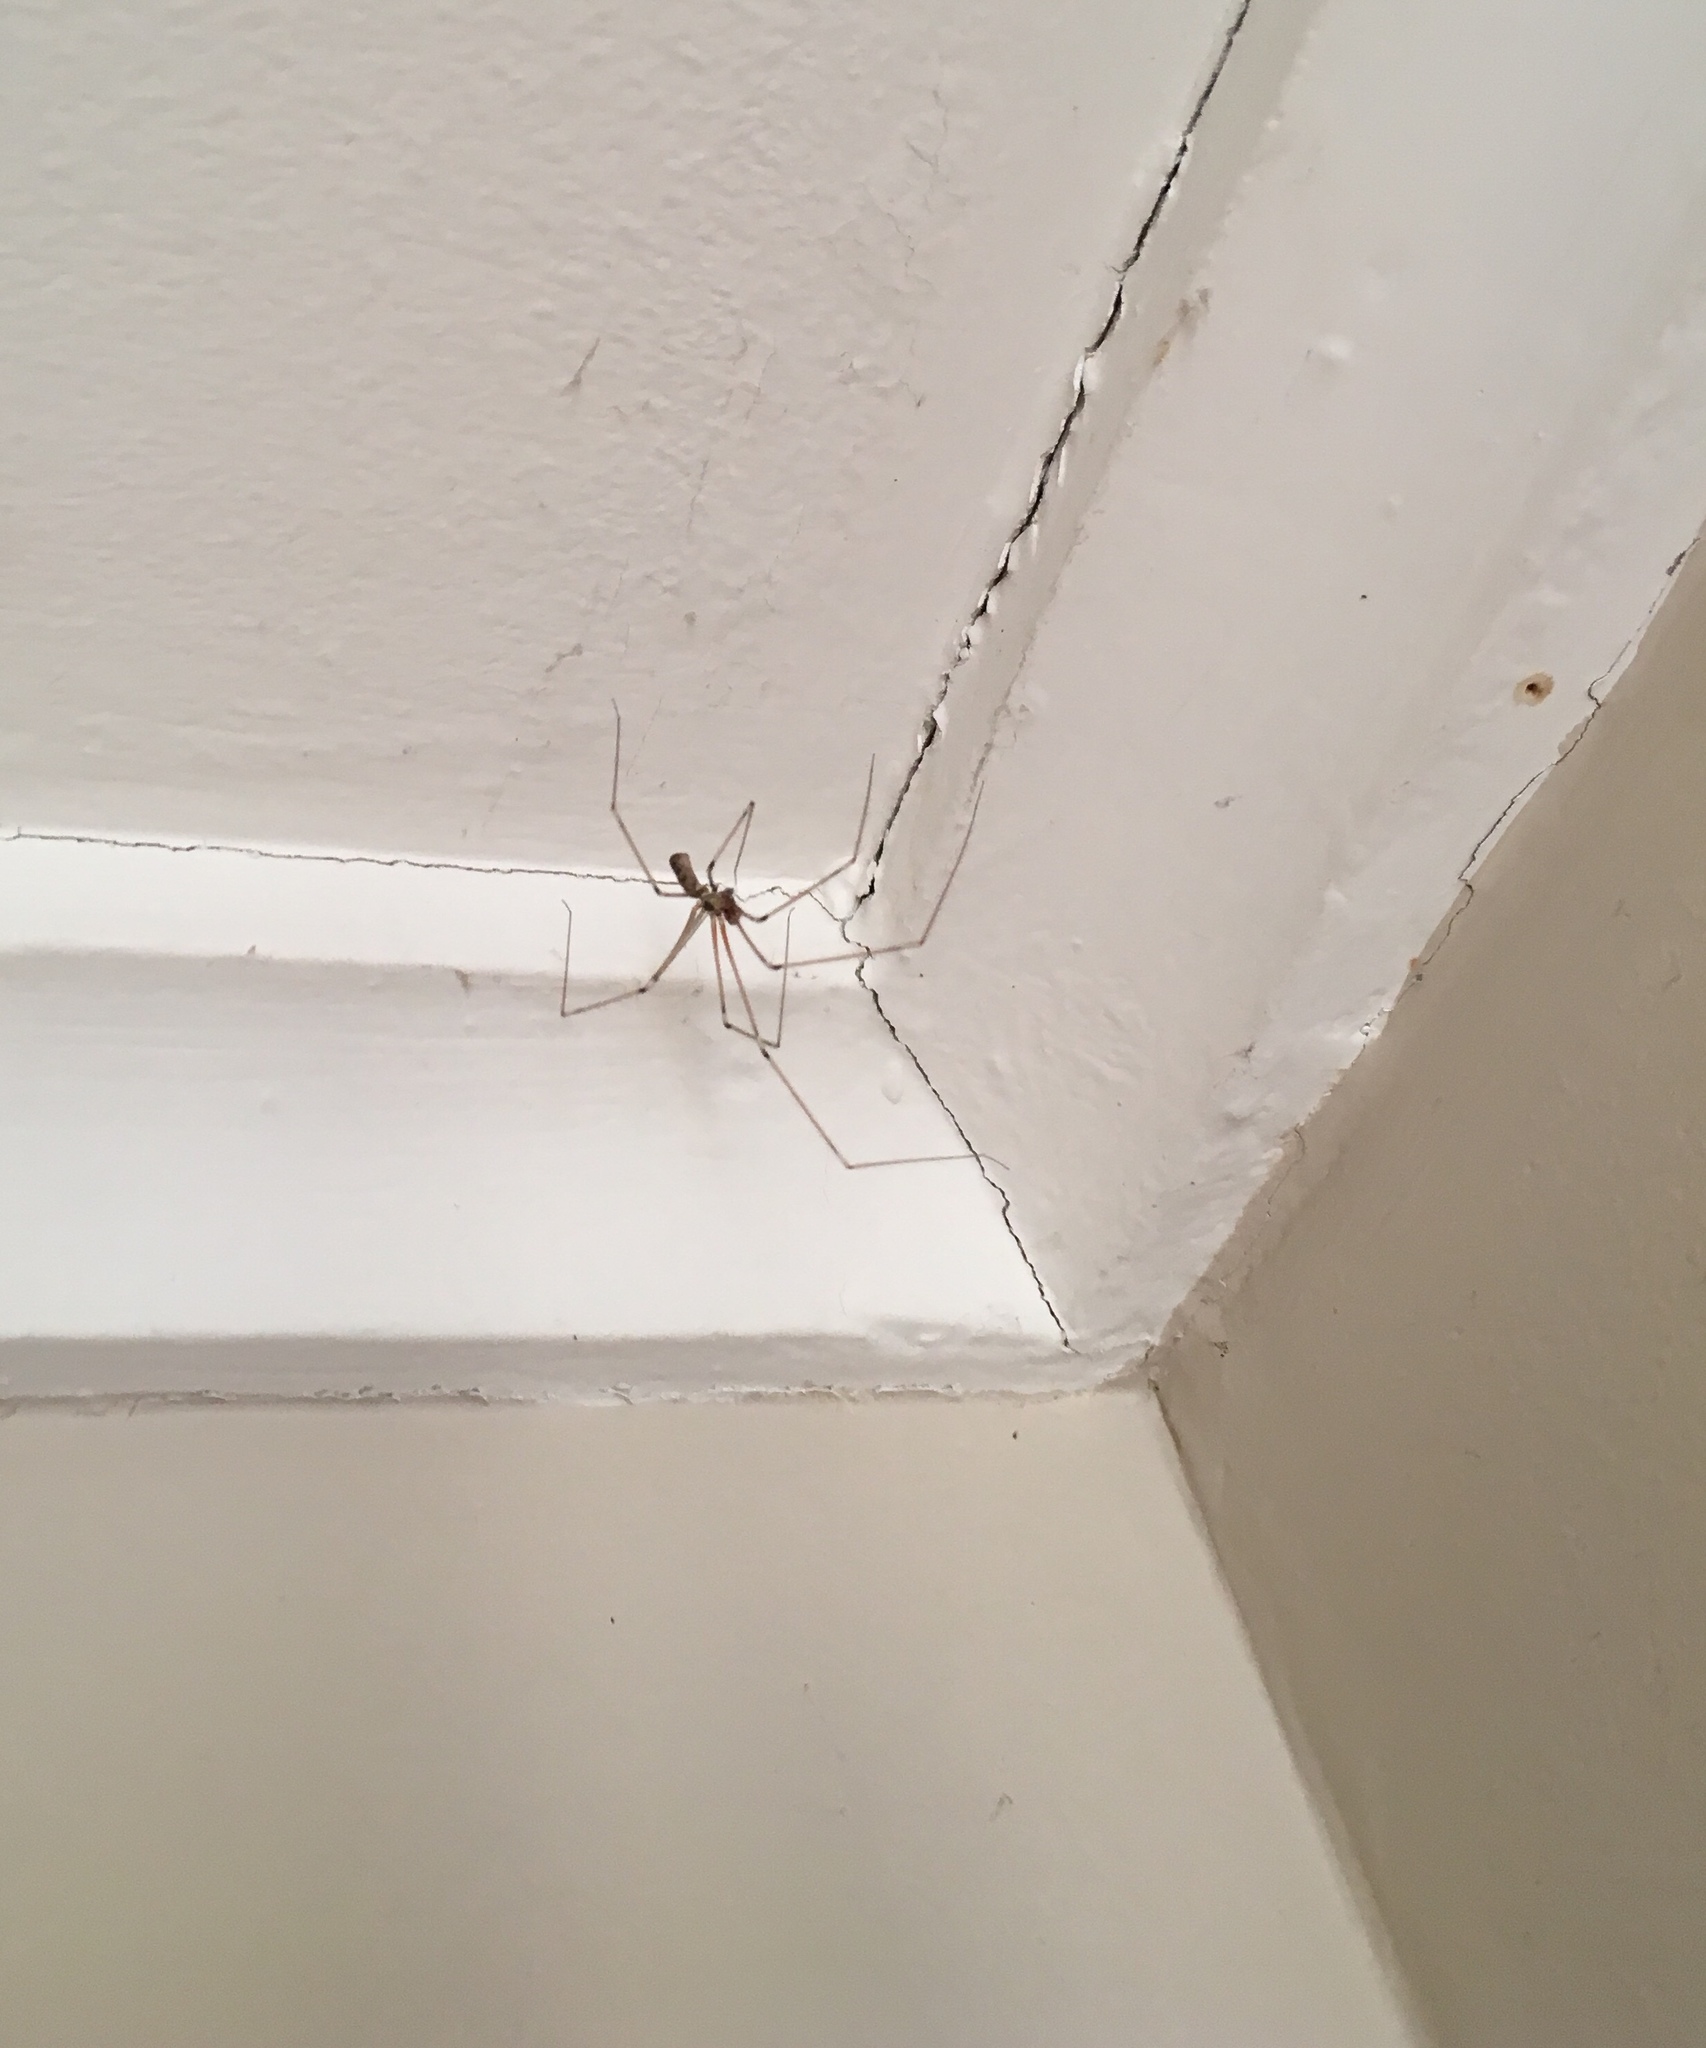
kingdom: Animalia
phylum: Arthropoda
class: Arachnida
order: Araneae
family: Pholcidae
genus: Pholcus
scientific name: Pholcus phalangioides
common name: Longbodied cellar spider
